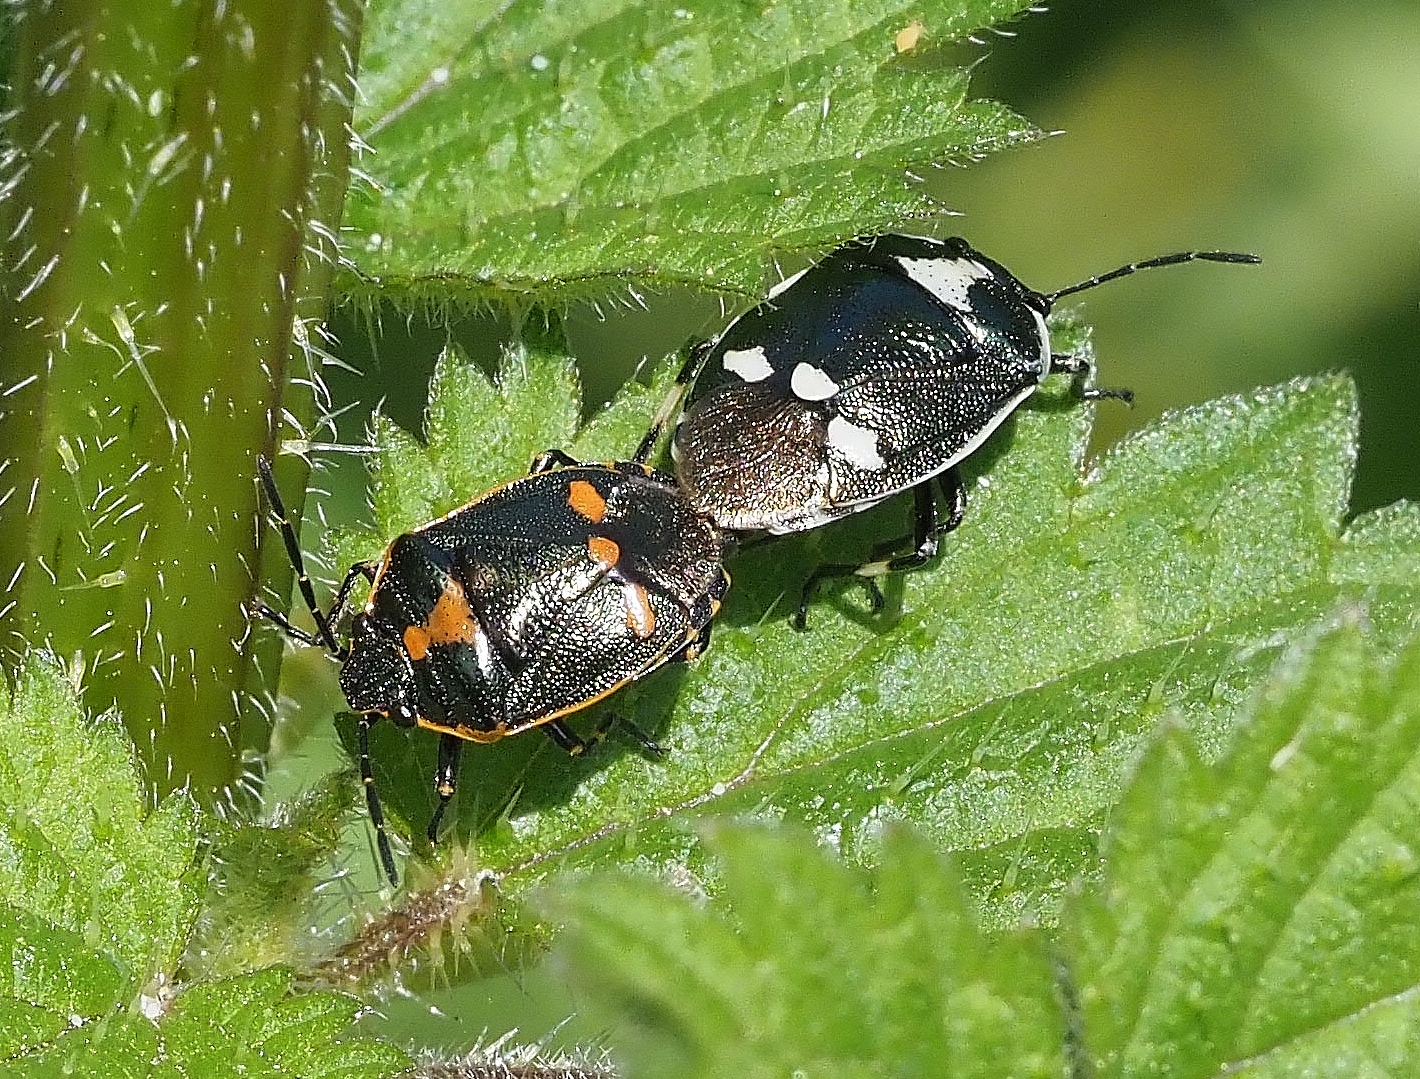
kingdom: Animalia
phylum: Arthropoda
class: Insecta
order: Hemiptera
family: Pentatomidae
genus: Eurydema
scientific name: Eurydema oleracea
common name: Cabbage bug
